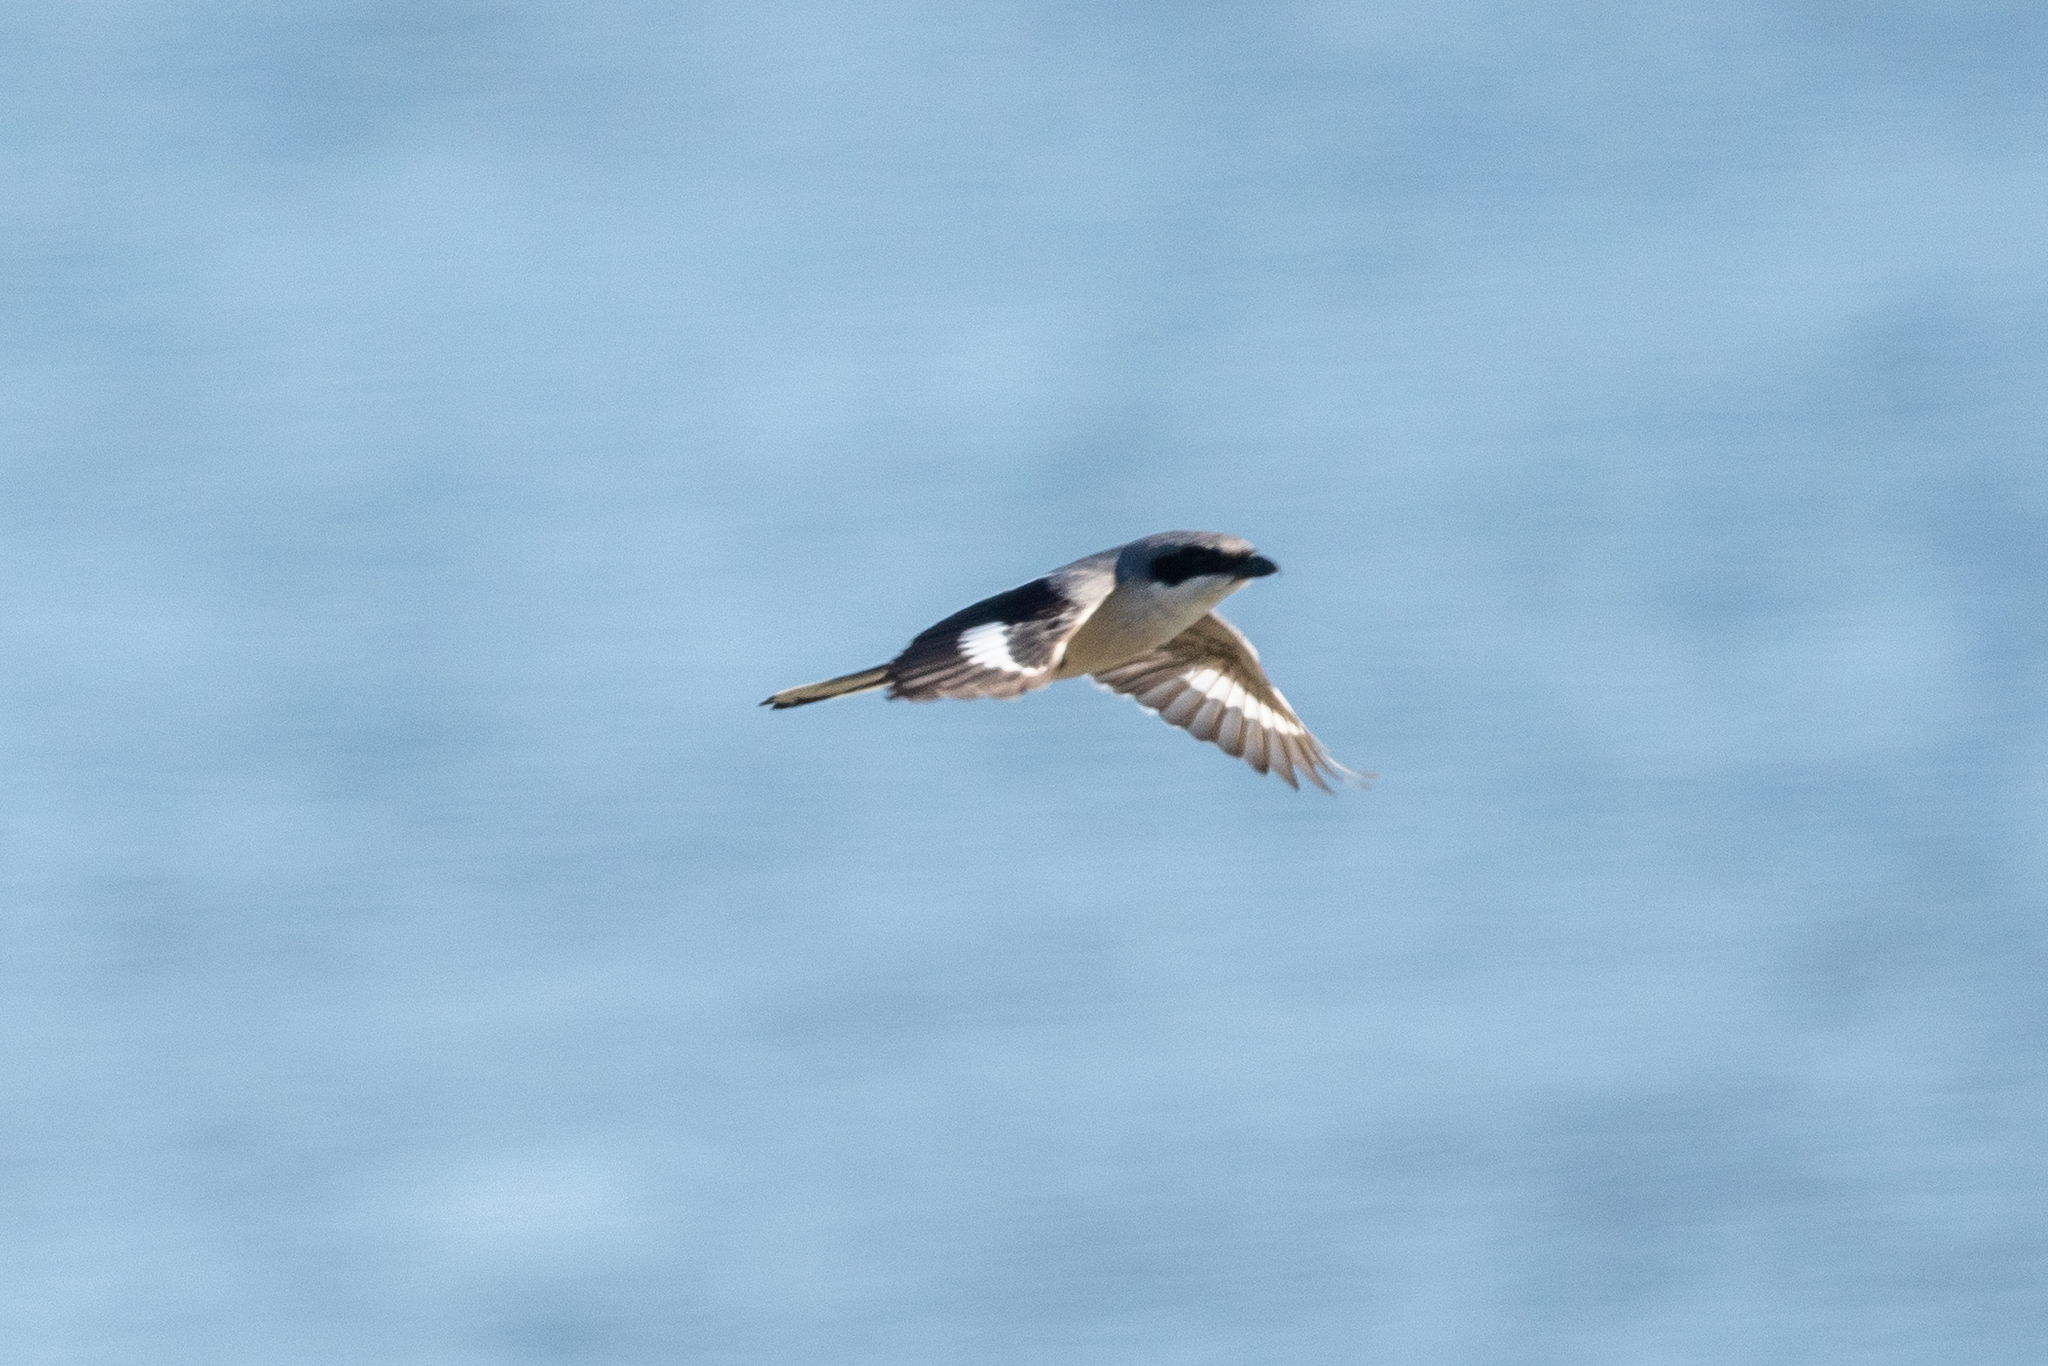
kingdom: Animalia
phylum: Chordata
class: Aves
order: Passeriformes
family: Laniidae
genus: Lanius
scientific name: Lanius ludovicianus
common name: Loggerhead shrike
